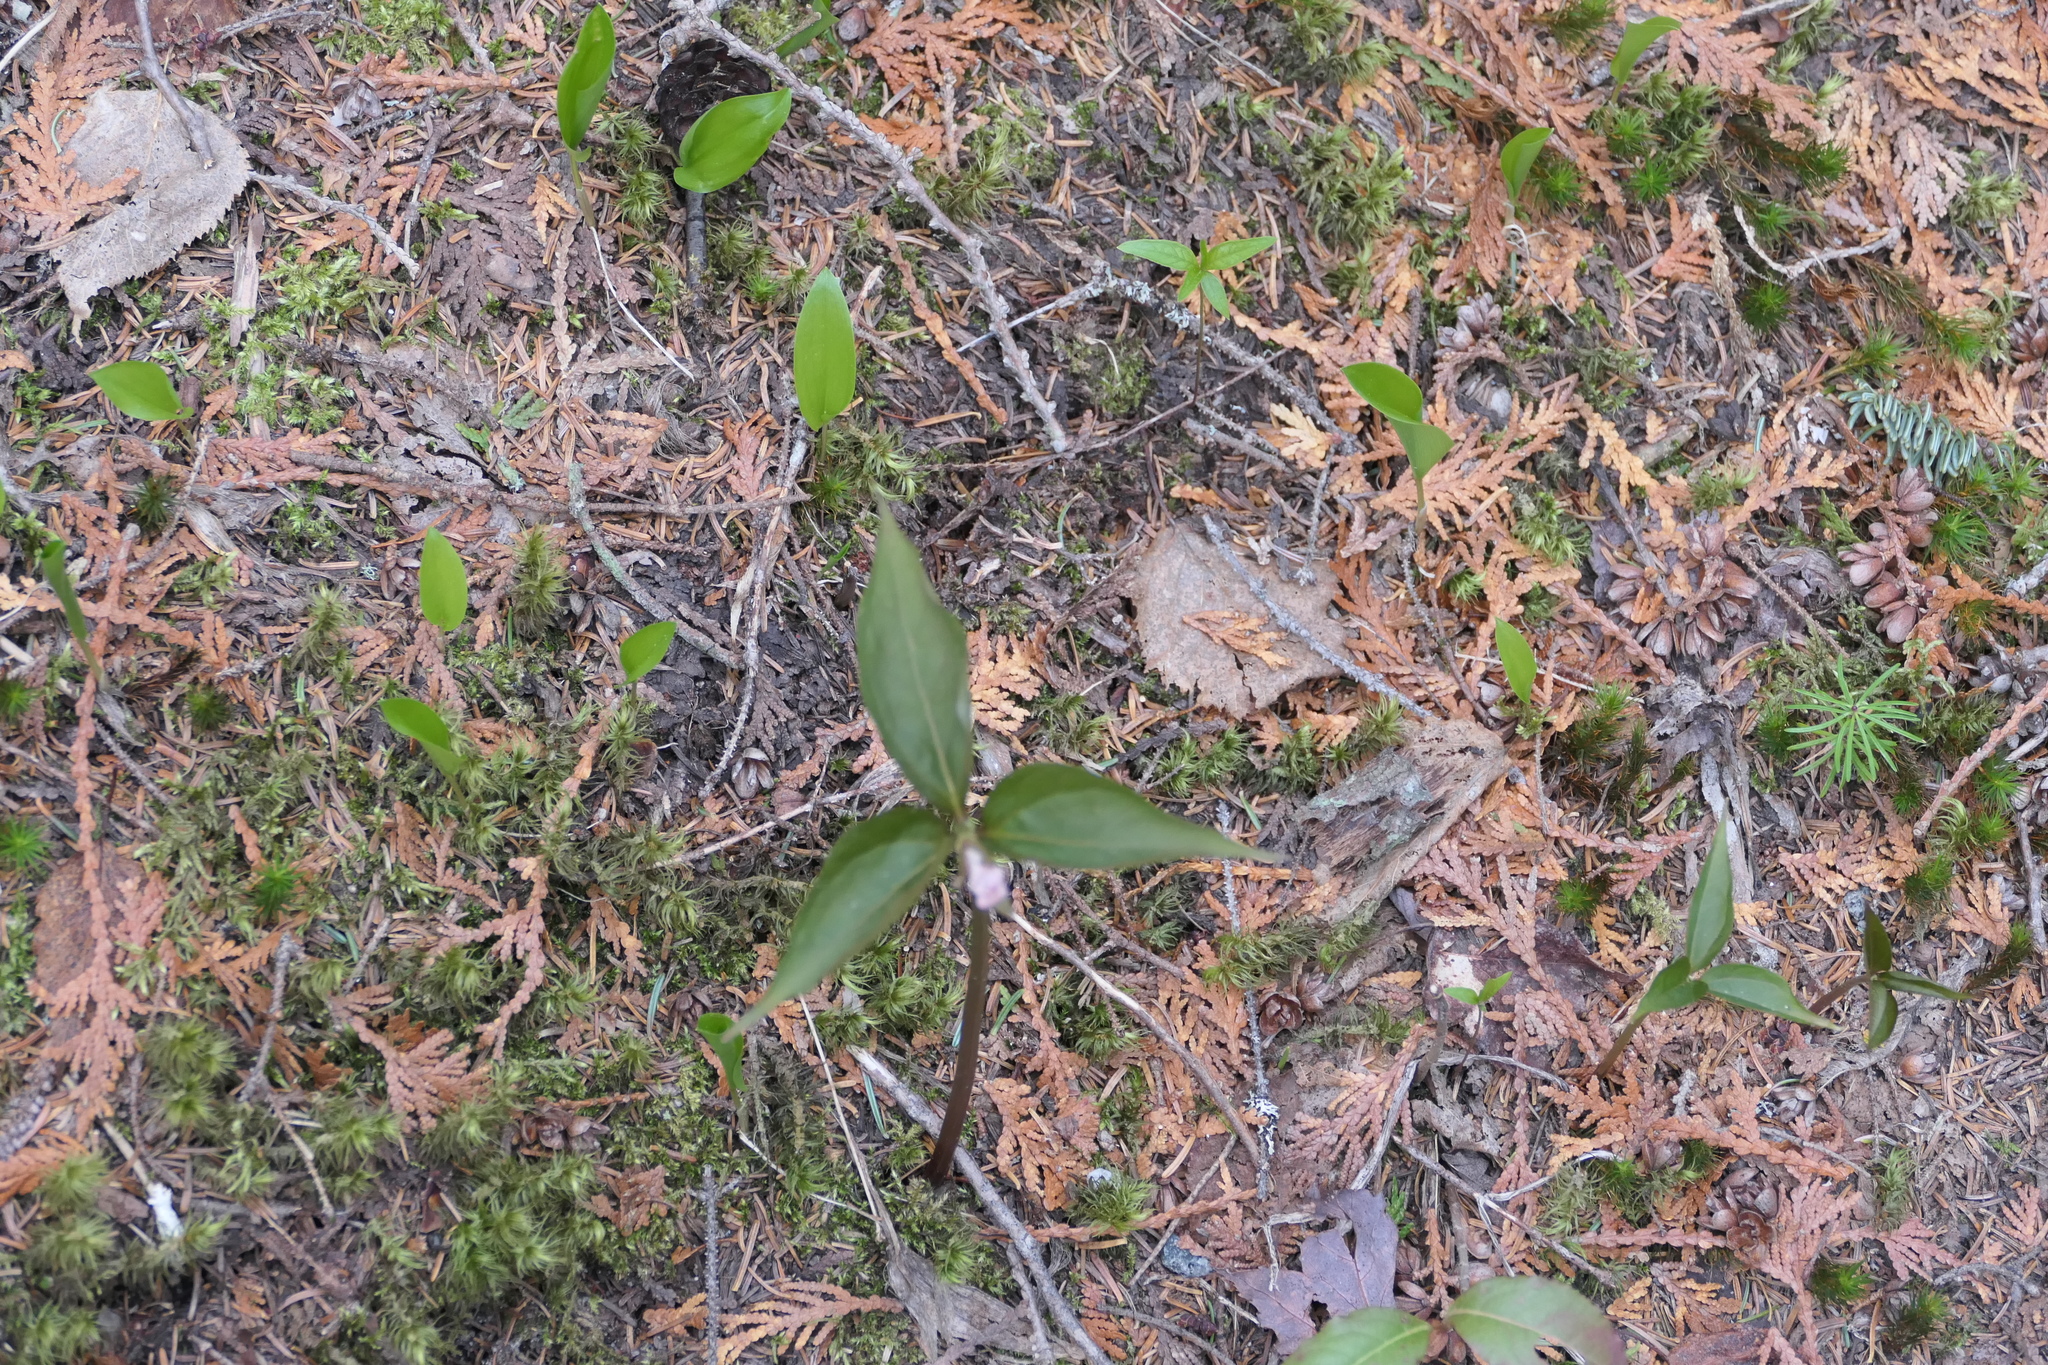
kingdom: Plantae
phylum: Tracheophyta
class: Liliopsida
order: Liliales
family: Melanthiaceae
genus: Trillium
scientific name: Trillium undulatum
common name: Paint trillium
